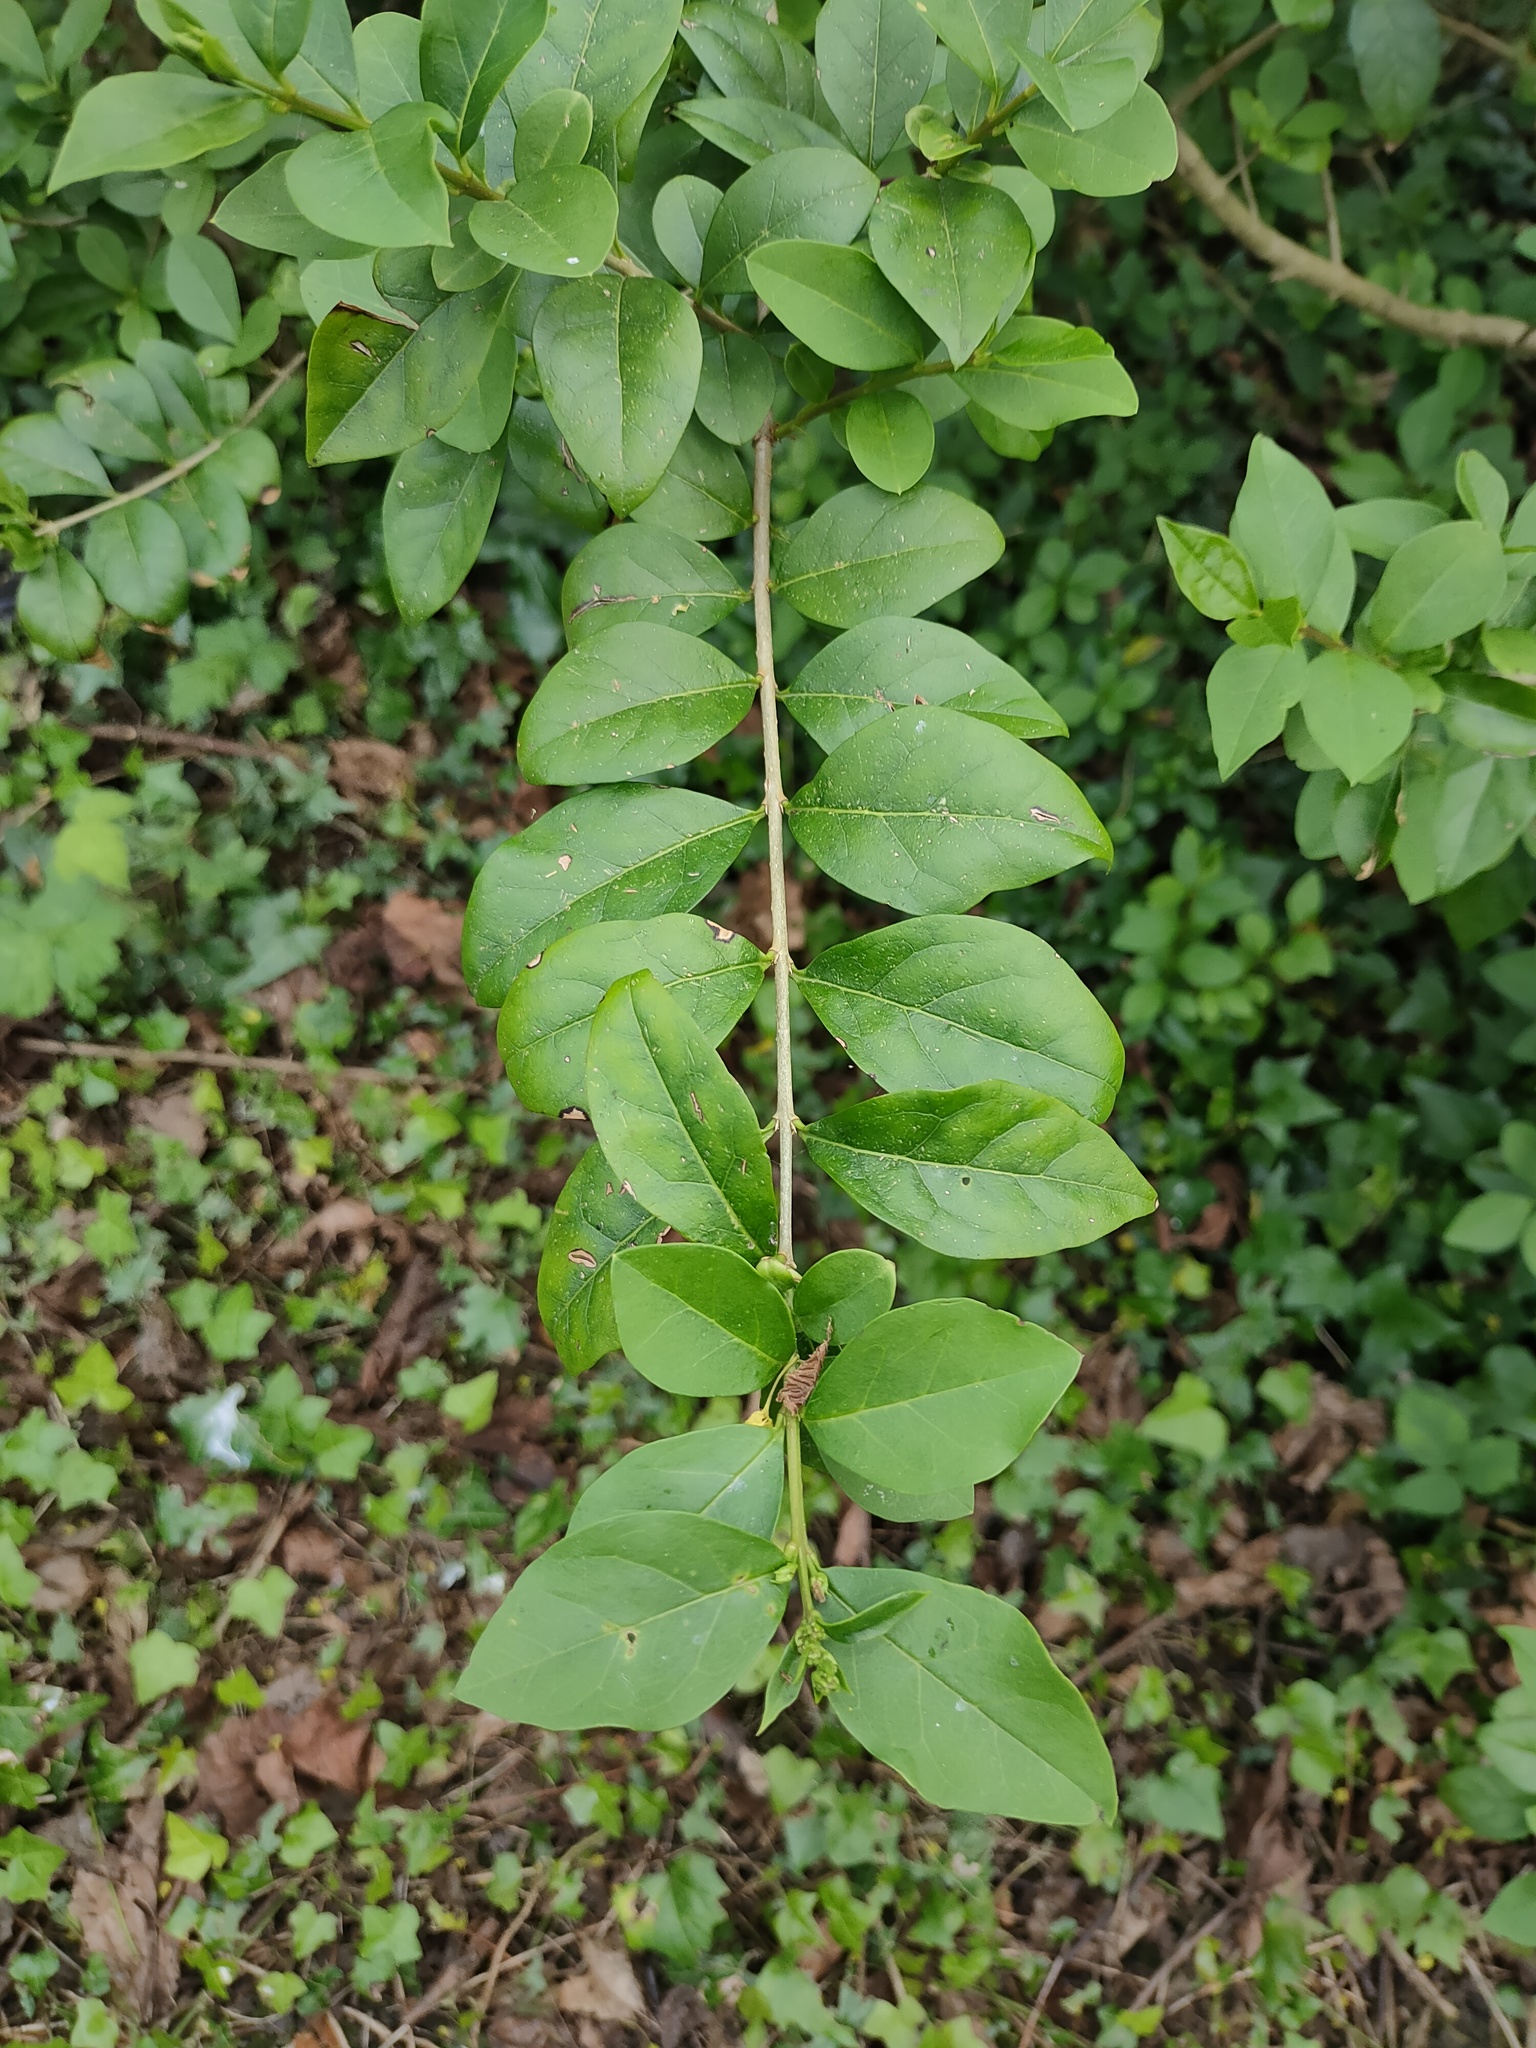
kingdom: Plantae
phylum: Tracheophyta
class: Magnoliopsida
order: Lamiales
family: Oleaceae
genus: Ligustrum
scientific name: Ligustrum ovalifolium
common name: California privet
